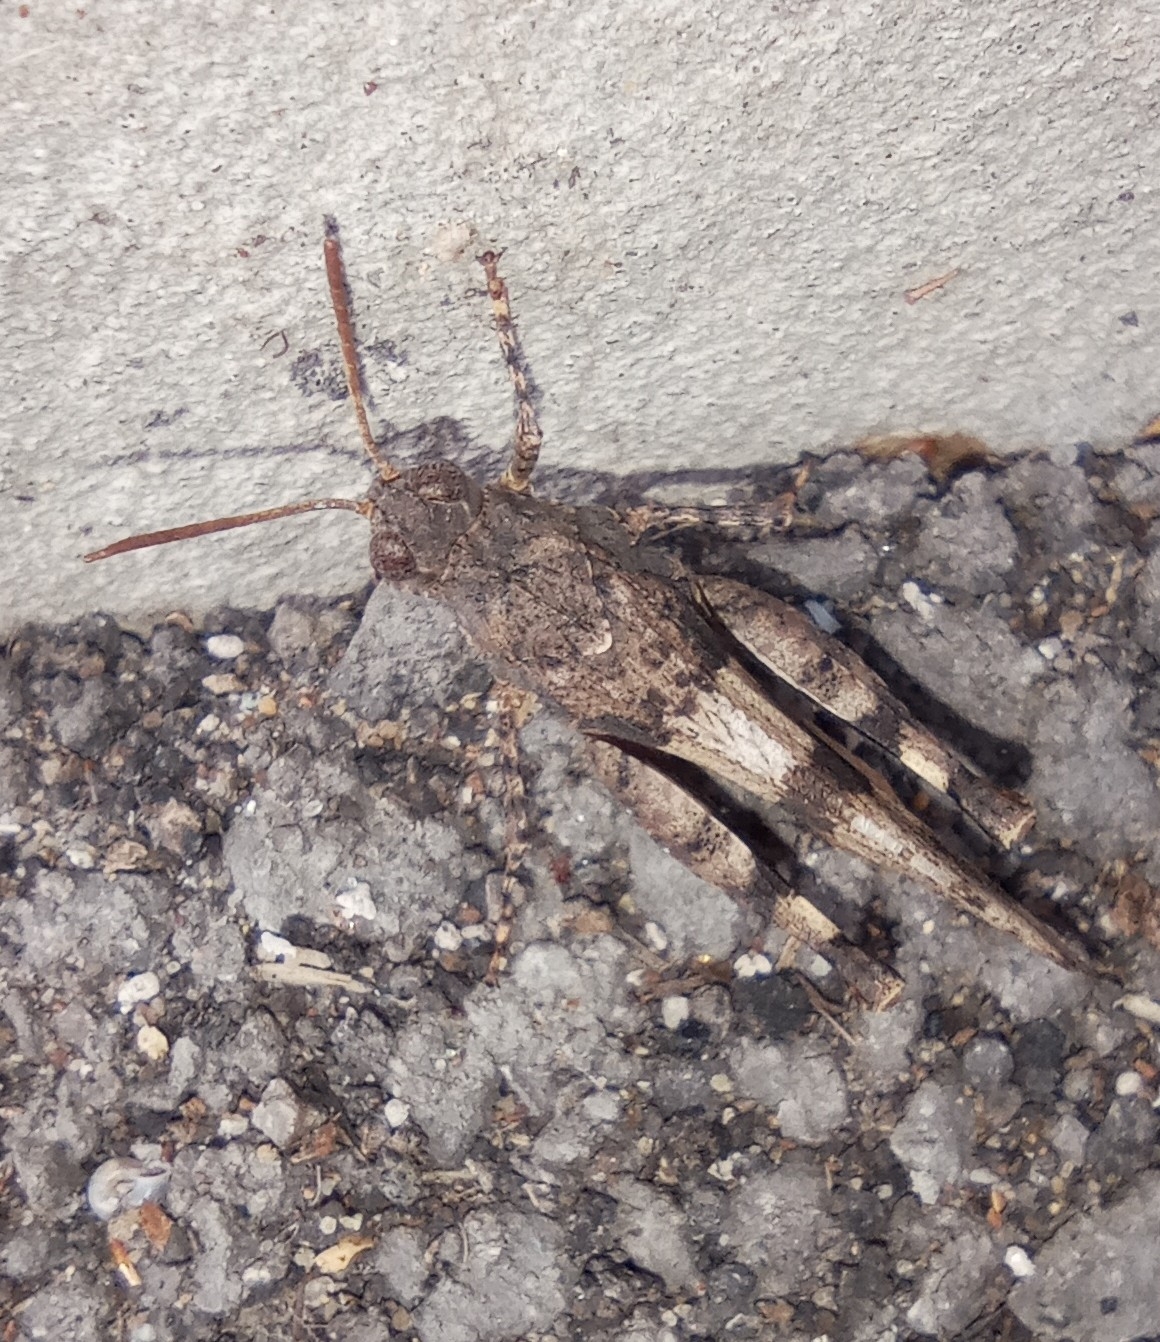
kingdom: Animalia
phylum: Arthropoda
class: Insecta
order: Orthoptera
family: Acrididae
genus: Oedipoda
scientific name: Oedipoda caerulescens
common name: Blue-winged grasshopper
